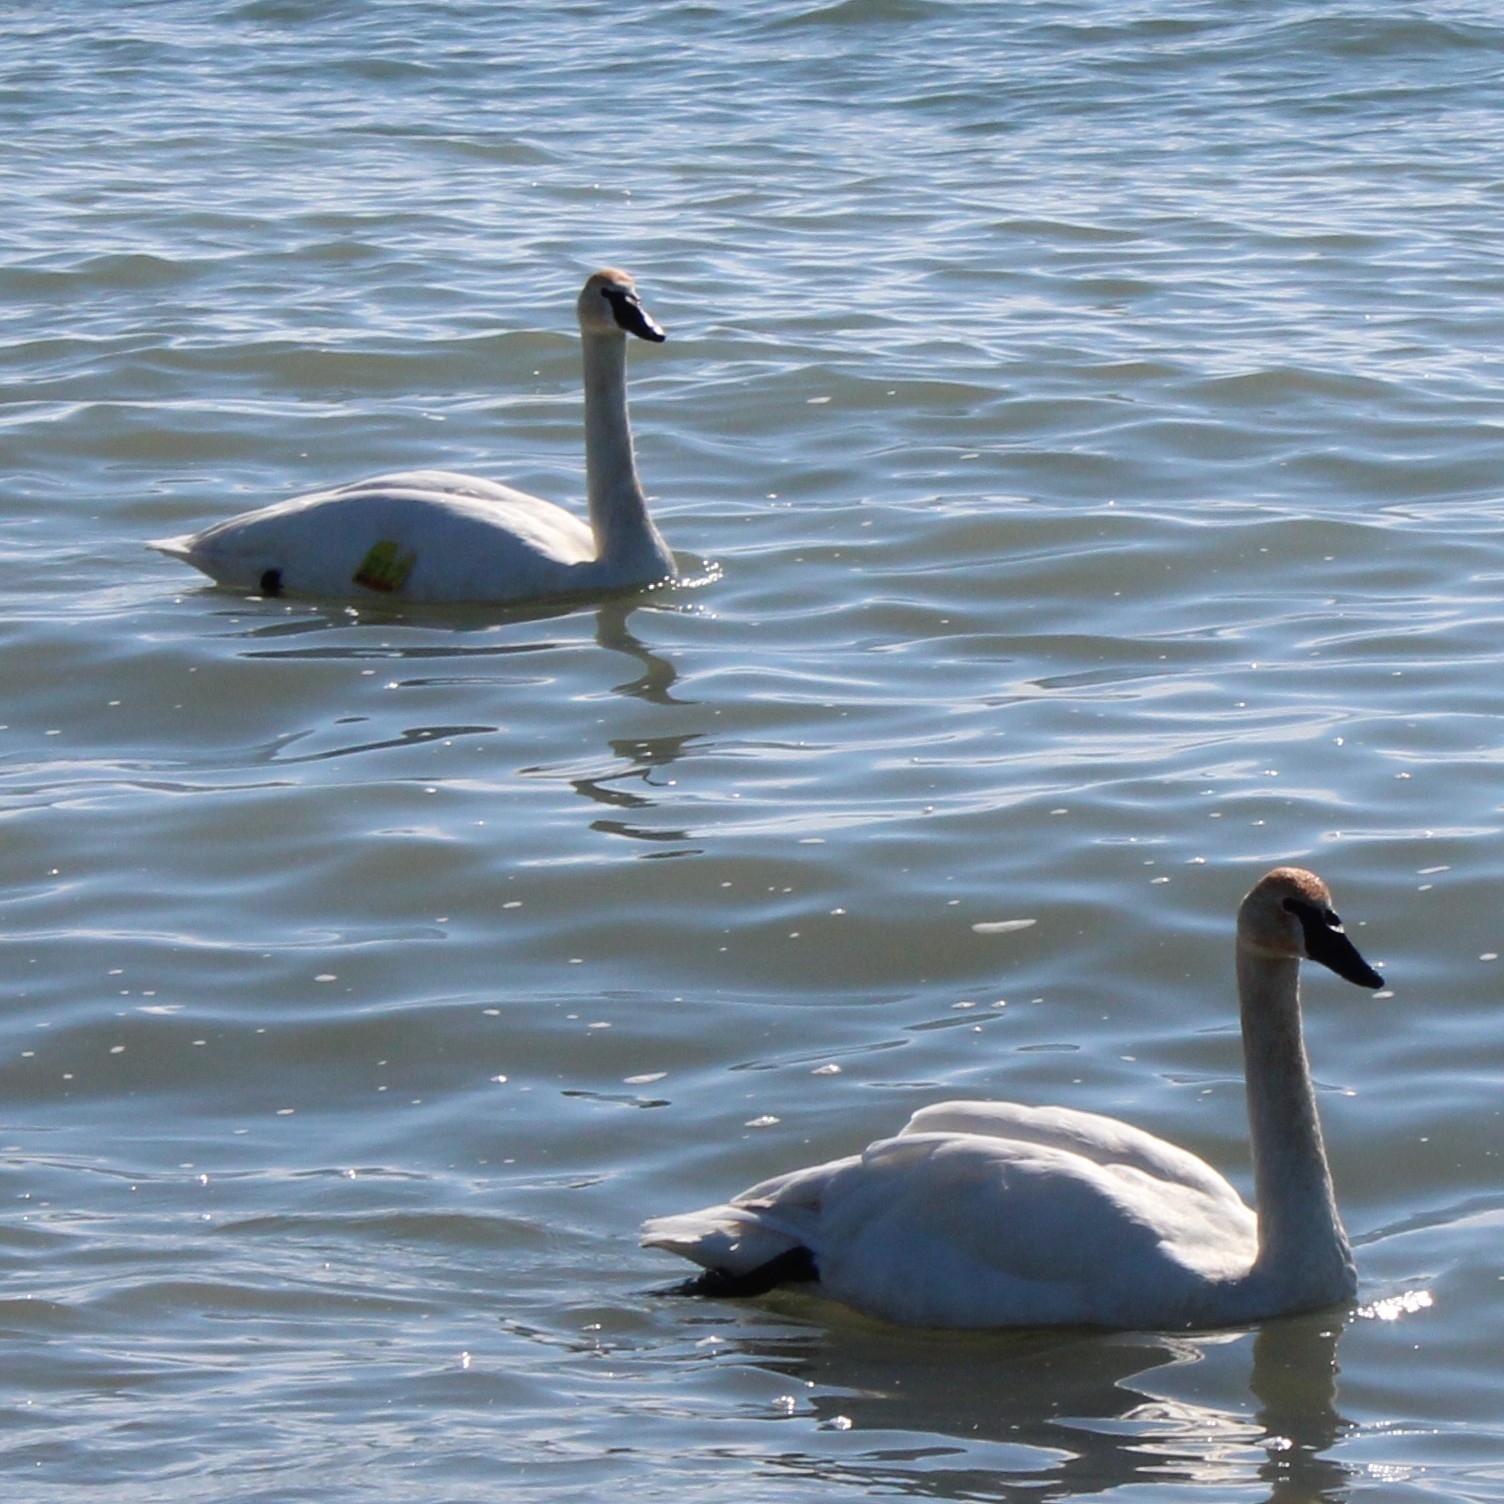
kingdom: Animalia
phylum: Chordata
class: Aves
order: Anseriformes
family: Anatidae
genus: Cygnus
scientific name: Cygnus buccinator
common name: Trumpeter swan
